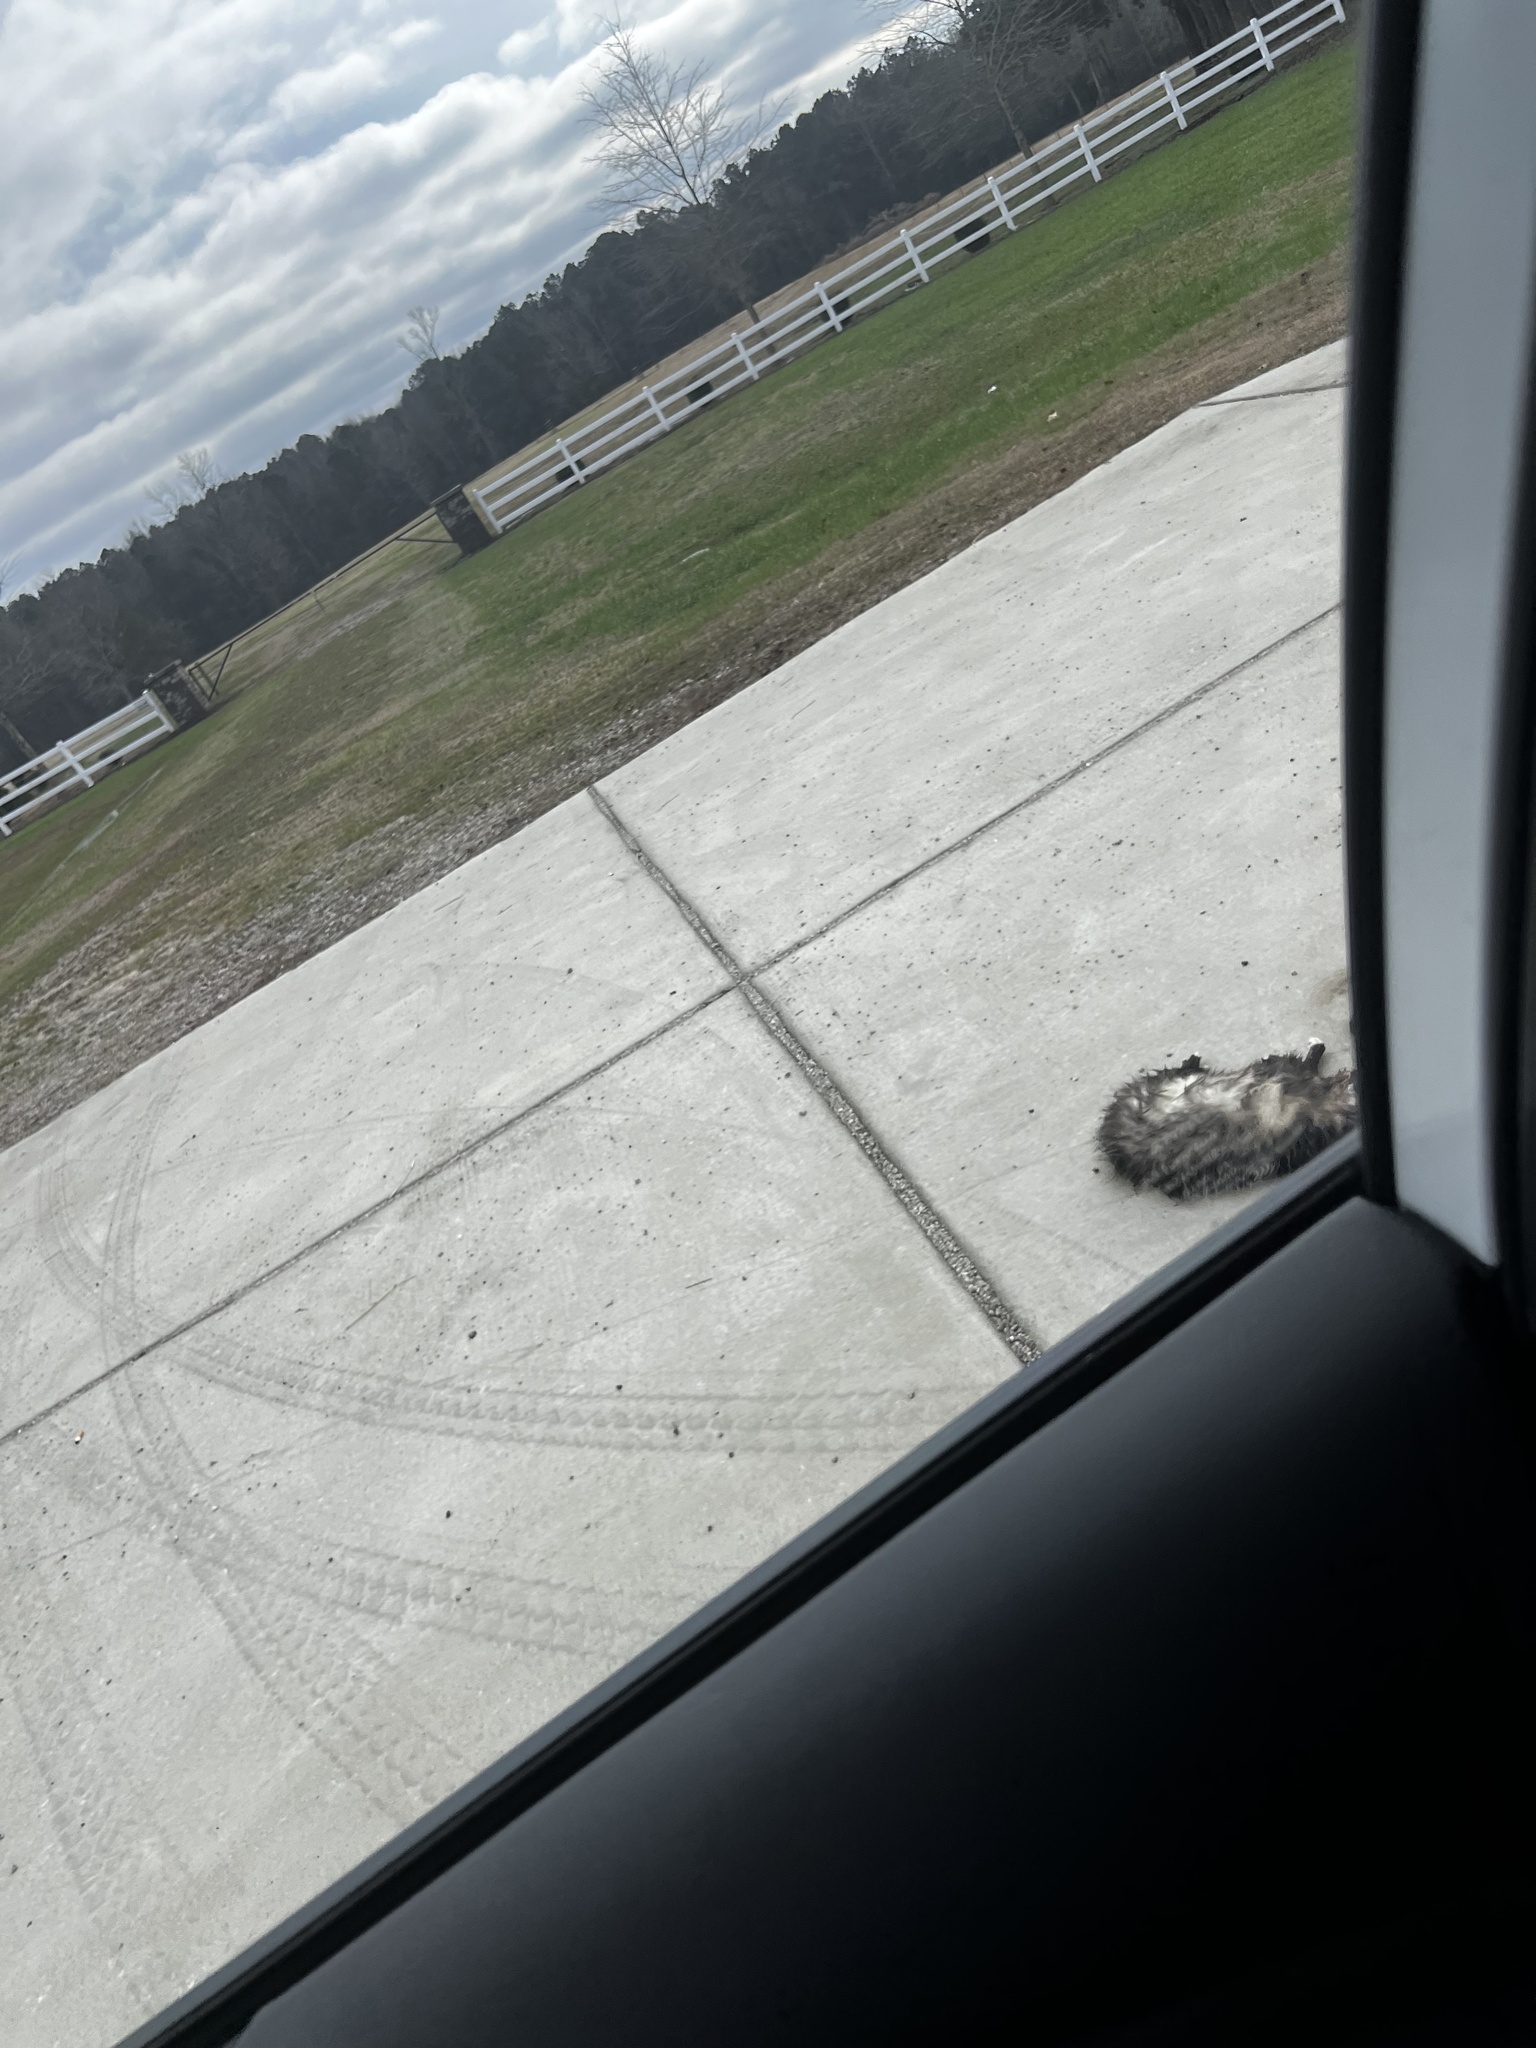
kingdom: Animalia
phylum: Chordata
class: Mammalia
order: Didelphimorphia
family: Didelphidae
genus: Didelphis
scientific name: Didelphis virginiana
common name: Virginia opossum
